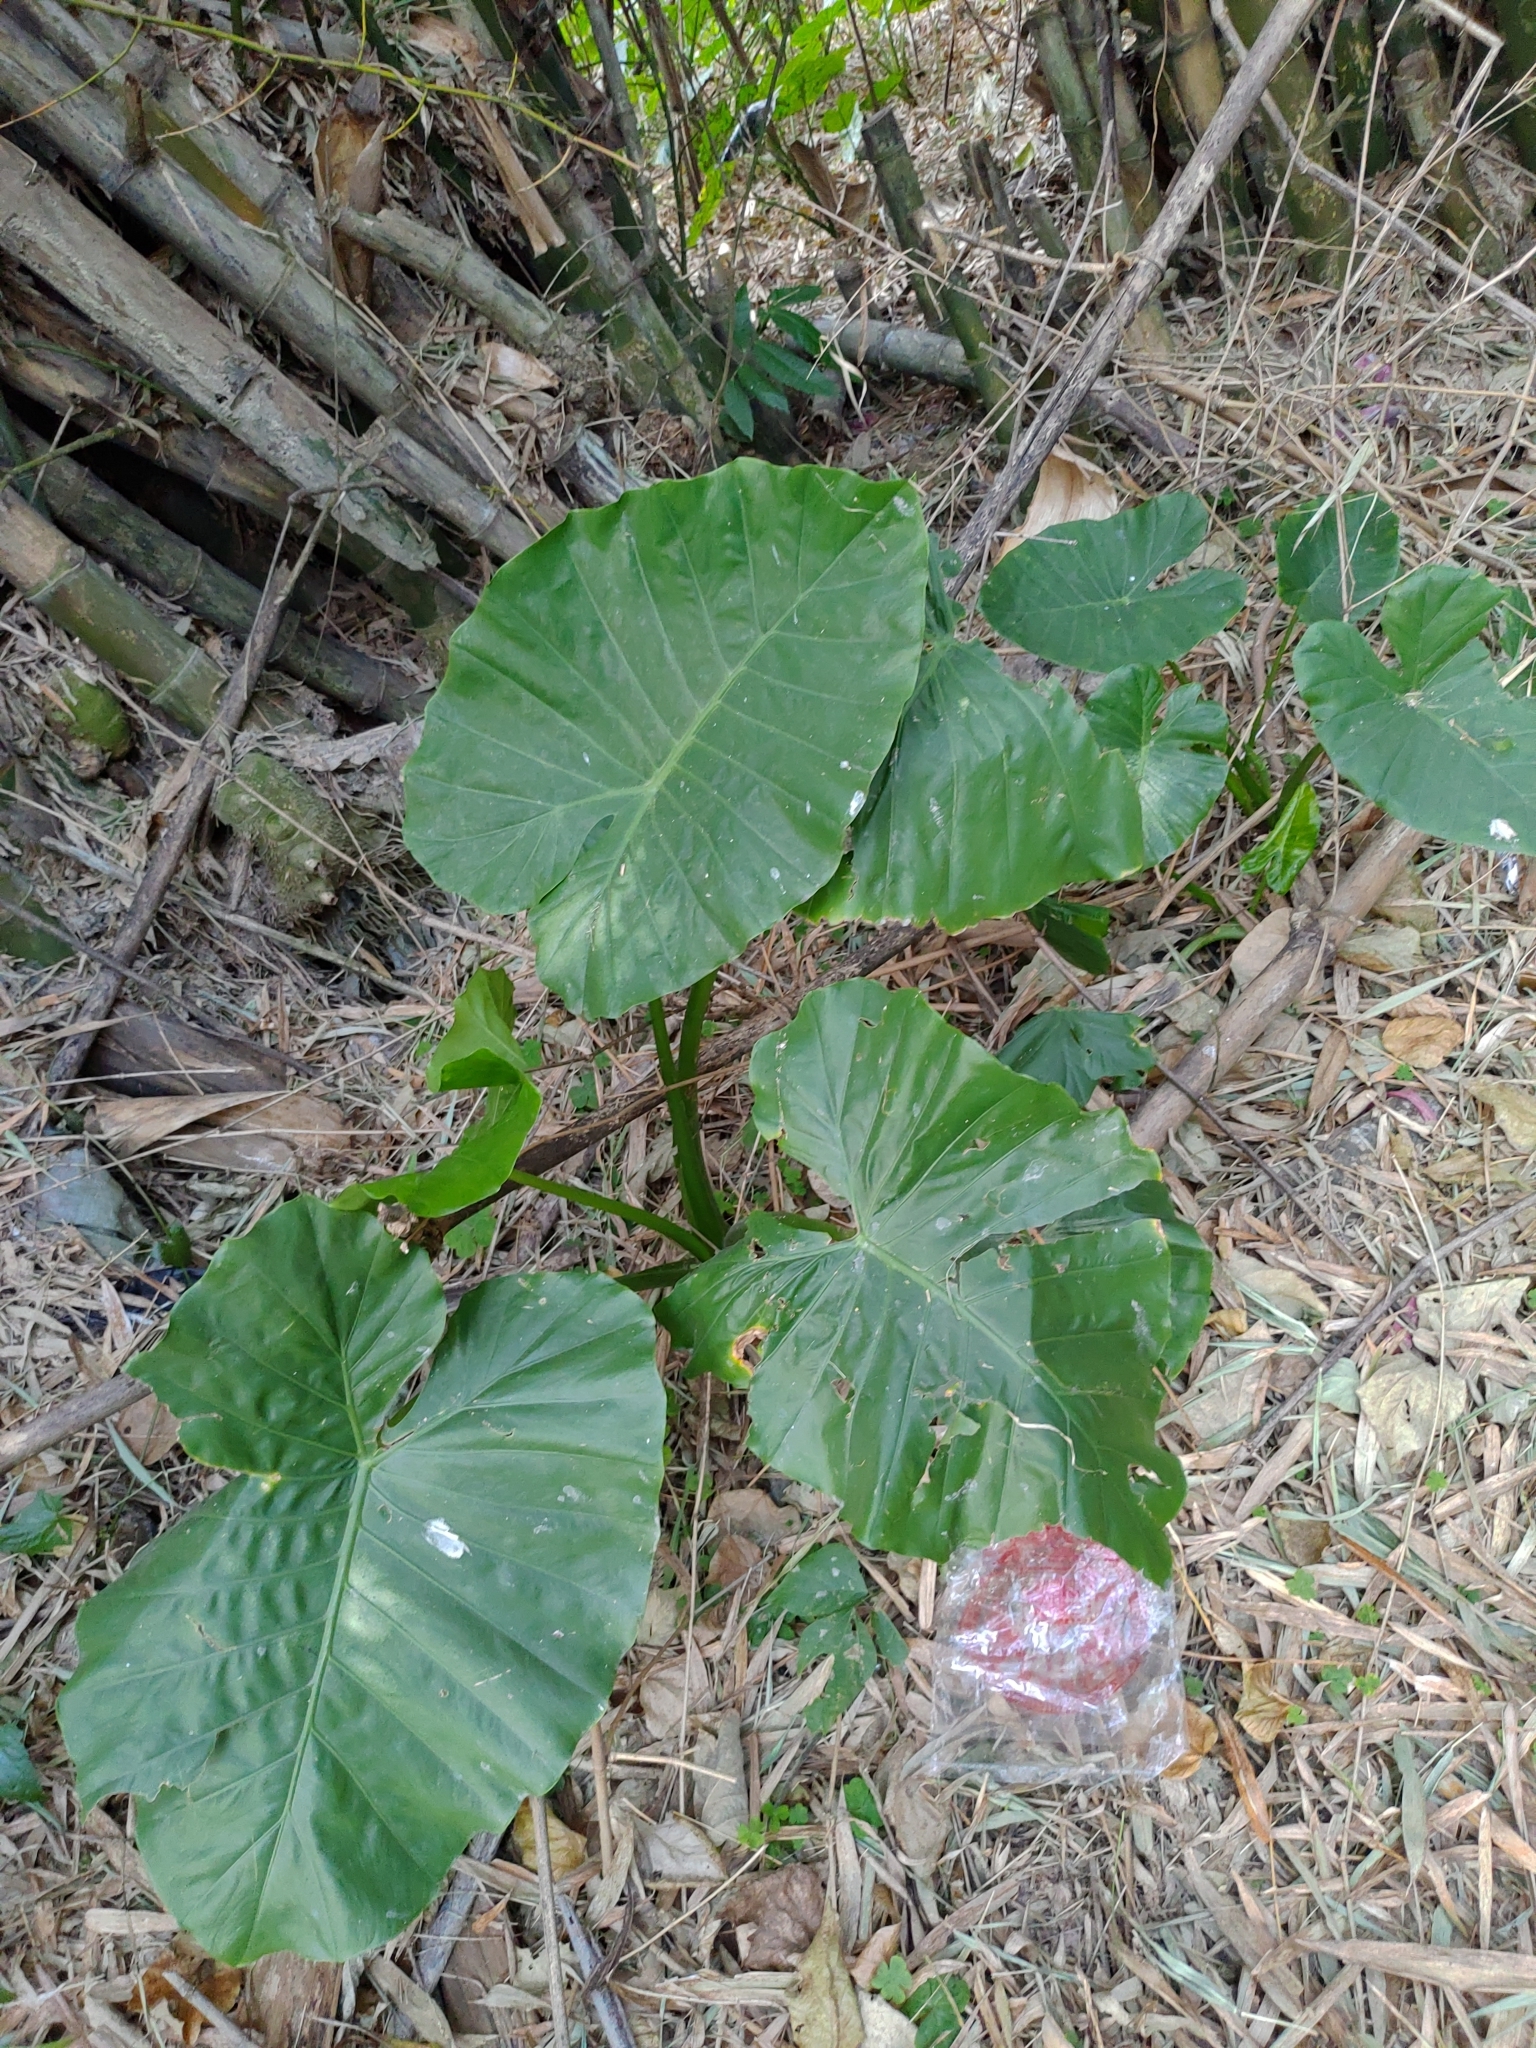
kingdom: Plantae
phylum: Tracheophyta
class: Liliopsida
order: Alismatales
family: Araceae
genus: Alocasia
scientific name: Alocasia odora
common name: Asian taro
